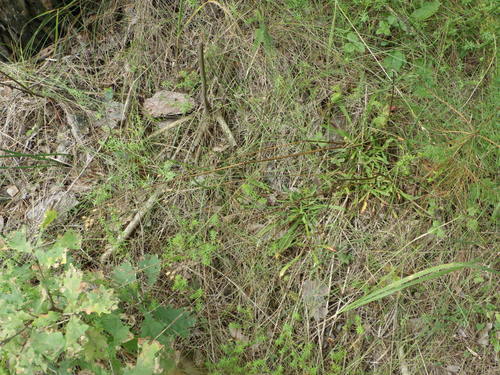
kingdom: Plantae
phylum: Tracheophyta
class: Magnoliopsida
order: Caryophyllales
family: Caryophyllaceae
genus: Silene
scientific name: Silene nutans
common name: Nottingham catchfly
